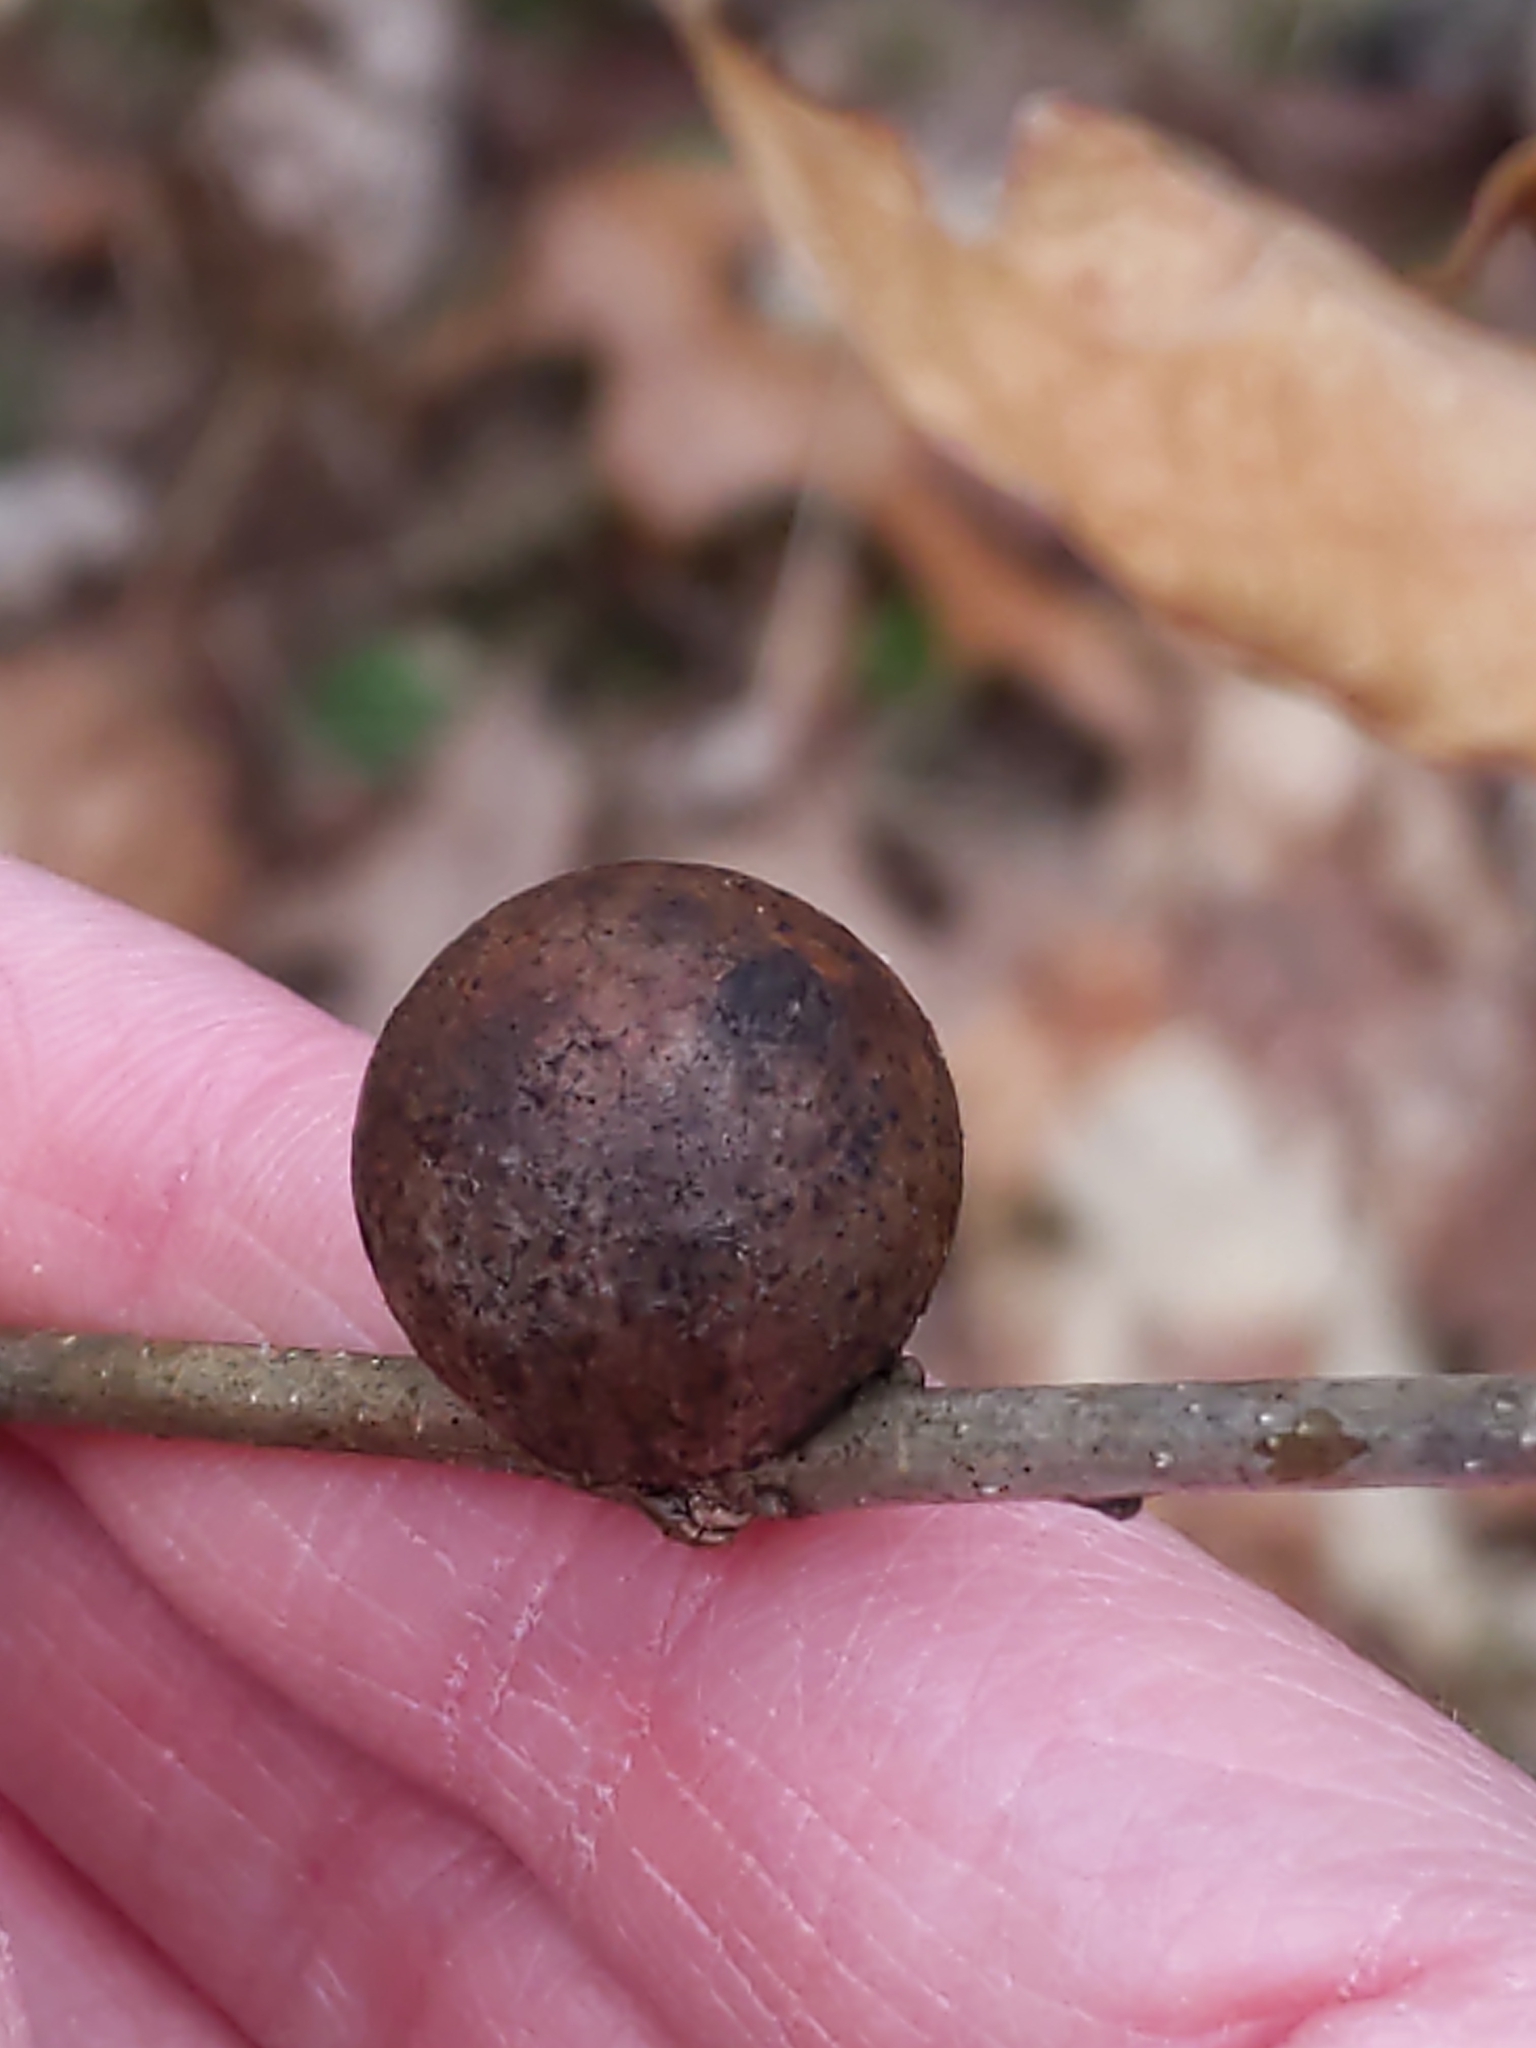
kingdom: Animalia
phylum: Arthropoda
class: Insecta
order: Hymenoptera
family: Cynipidae
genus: Disholcaspis
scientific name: Disholcaspis quercusglobulus
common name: Round bullet gall wasp
